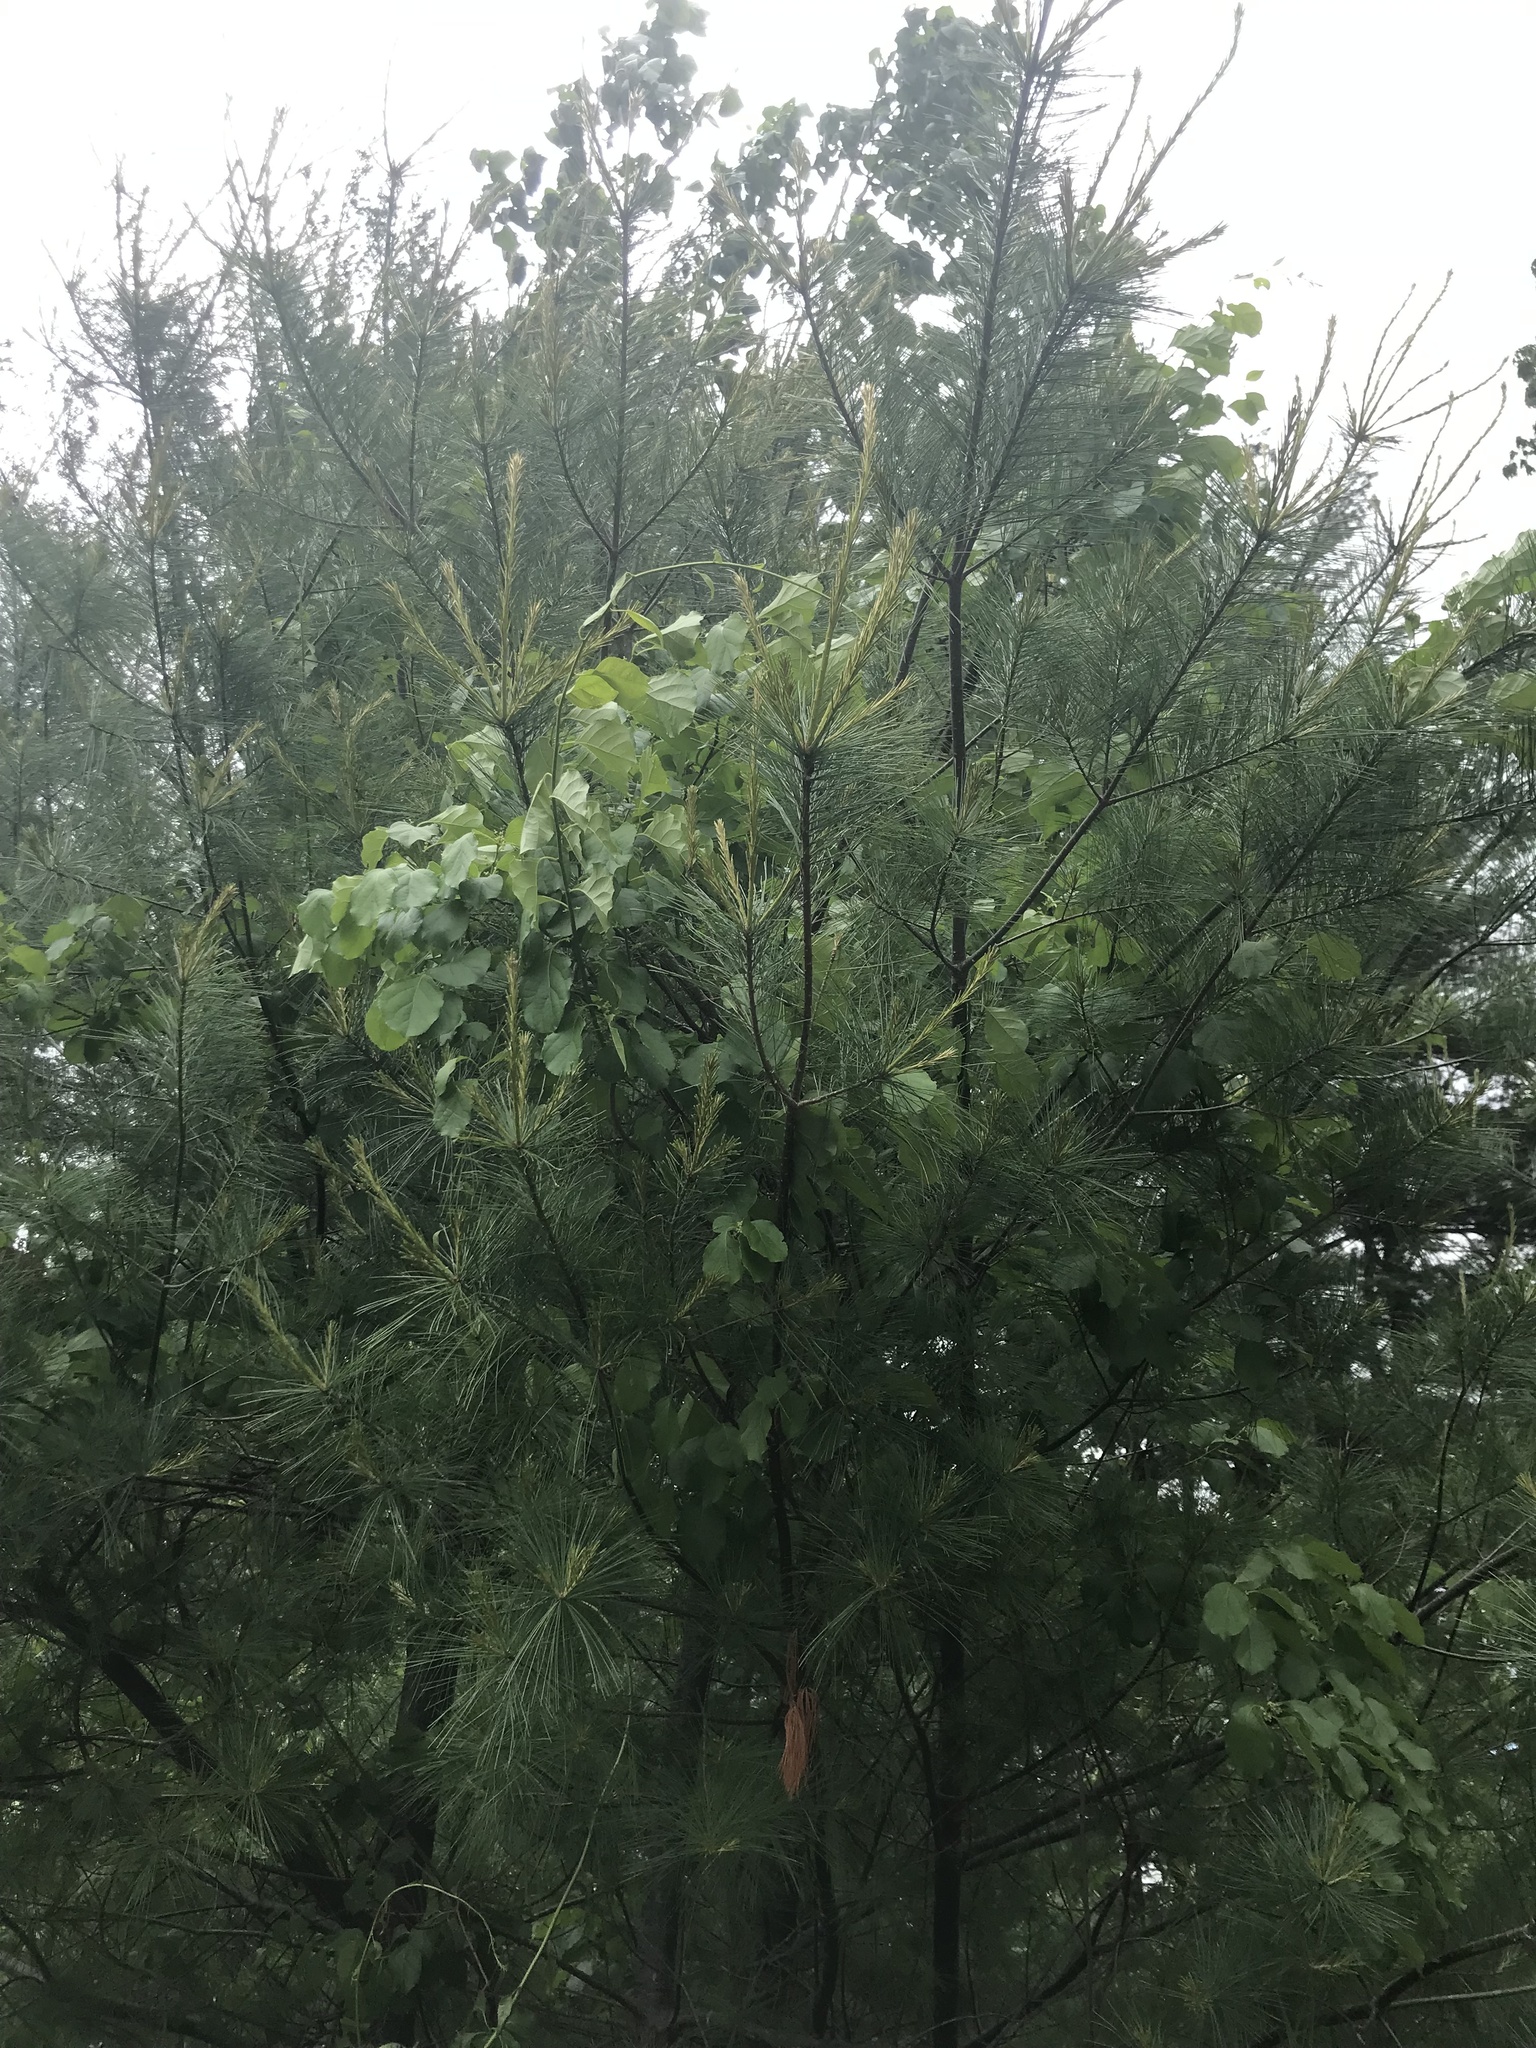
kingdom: Plantae
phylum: Tracheophyta
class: Pinopsida
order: Pinales
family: Pinaceae
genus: Pinus
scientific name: Pinus strobus
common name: Weymouth pine
